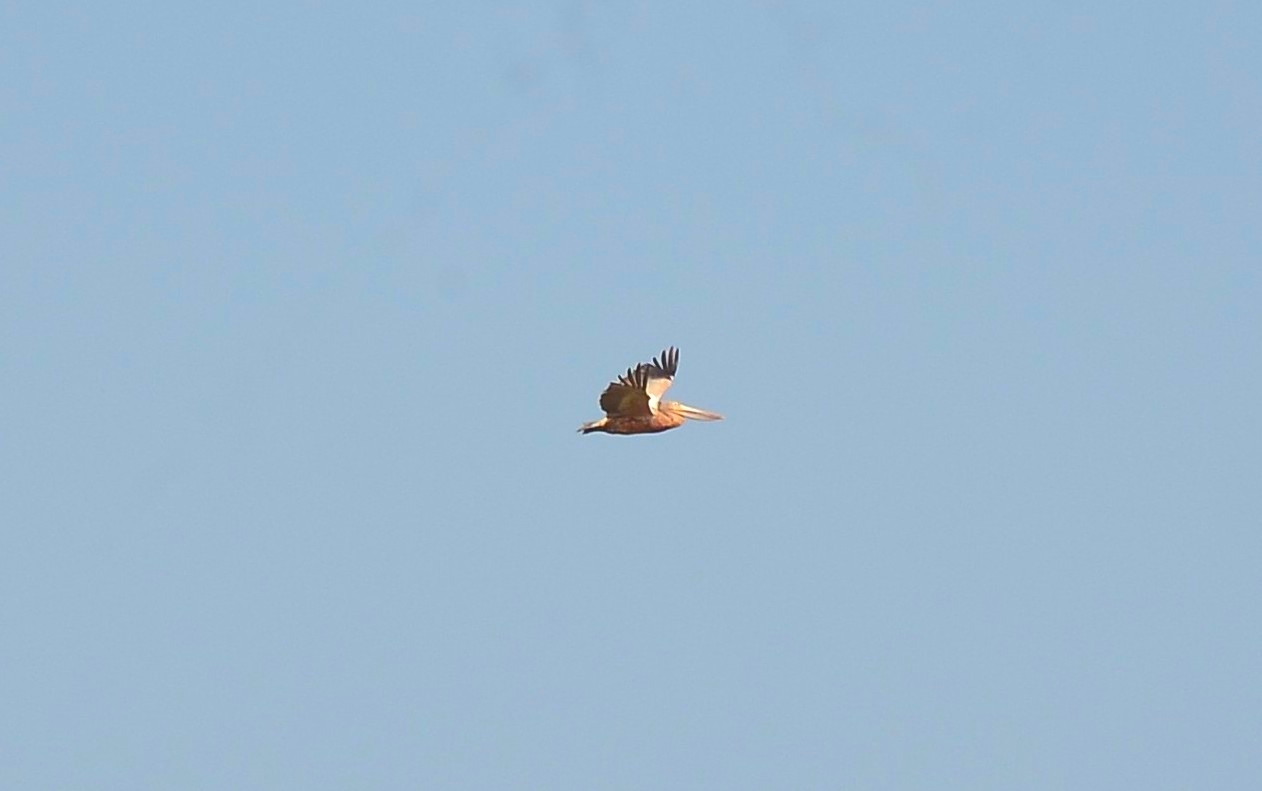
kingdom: Animalia
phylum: Chordata
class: Aves
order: Pelecaniformes
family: Pelecanidae
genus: Pelecanus
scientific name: Pelecanus philippensis
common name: Spot-billed pelican
